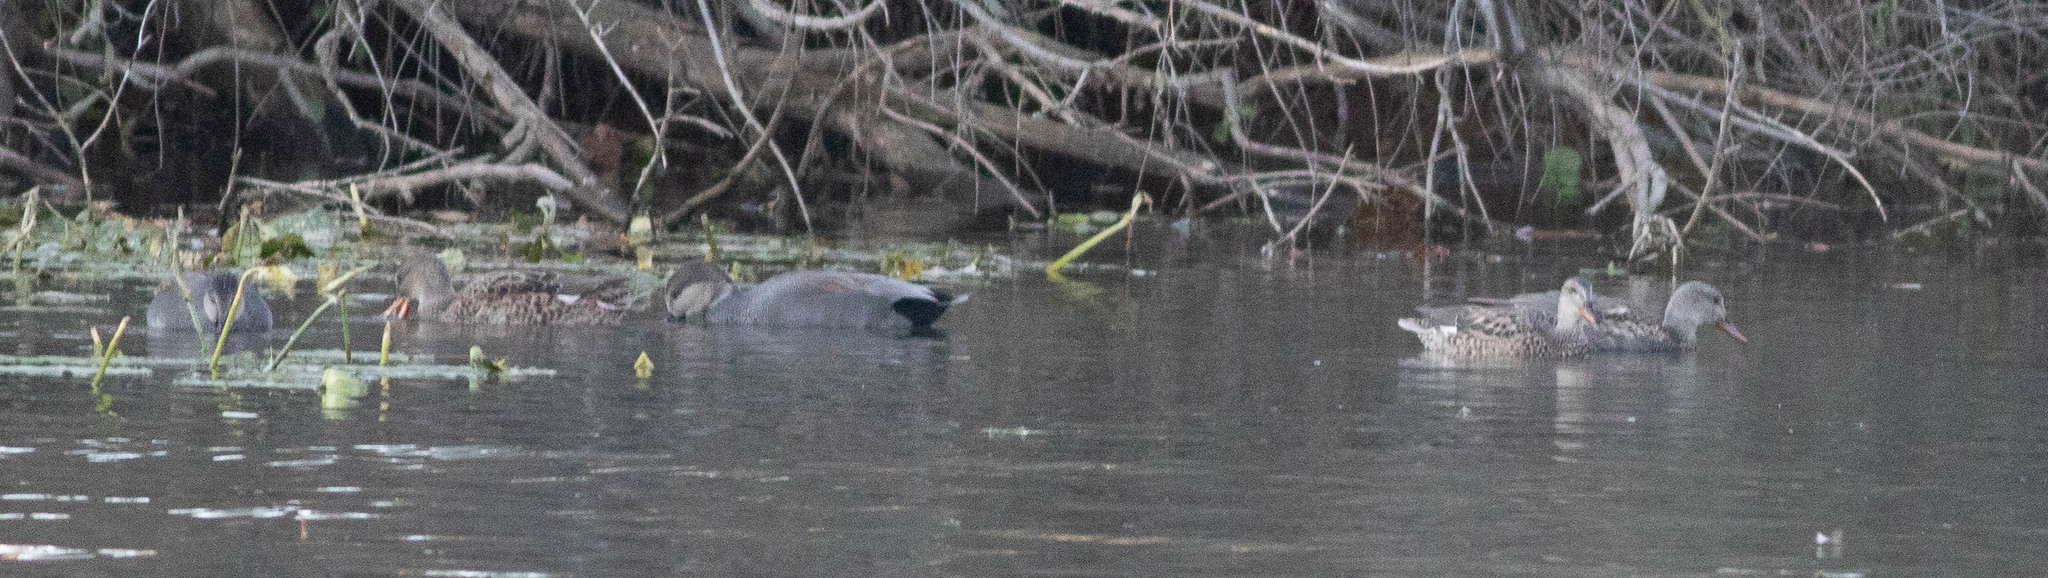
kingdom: Animalia
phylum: Chordata
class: Aves
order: Anseriformes
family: Anatidae
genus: Mareca
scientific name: Mareca strepera
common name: Gadwall
